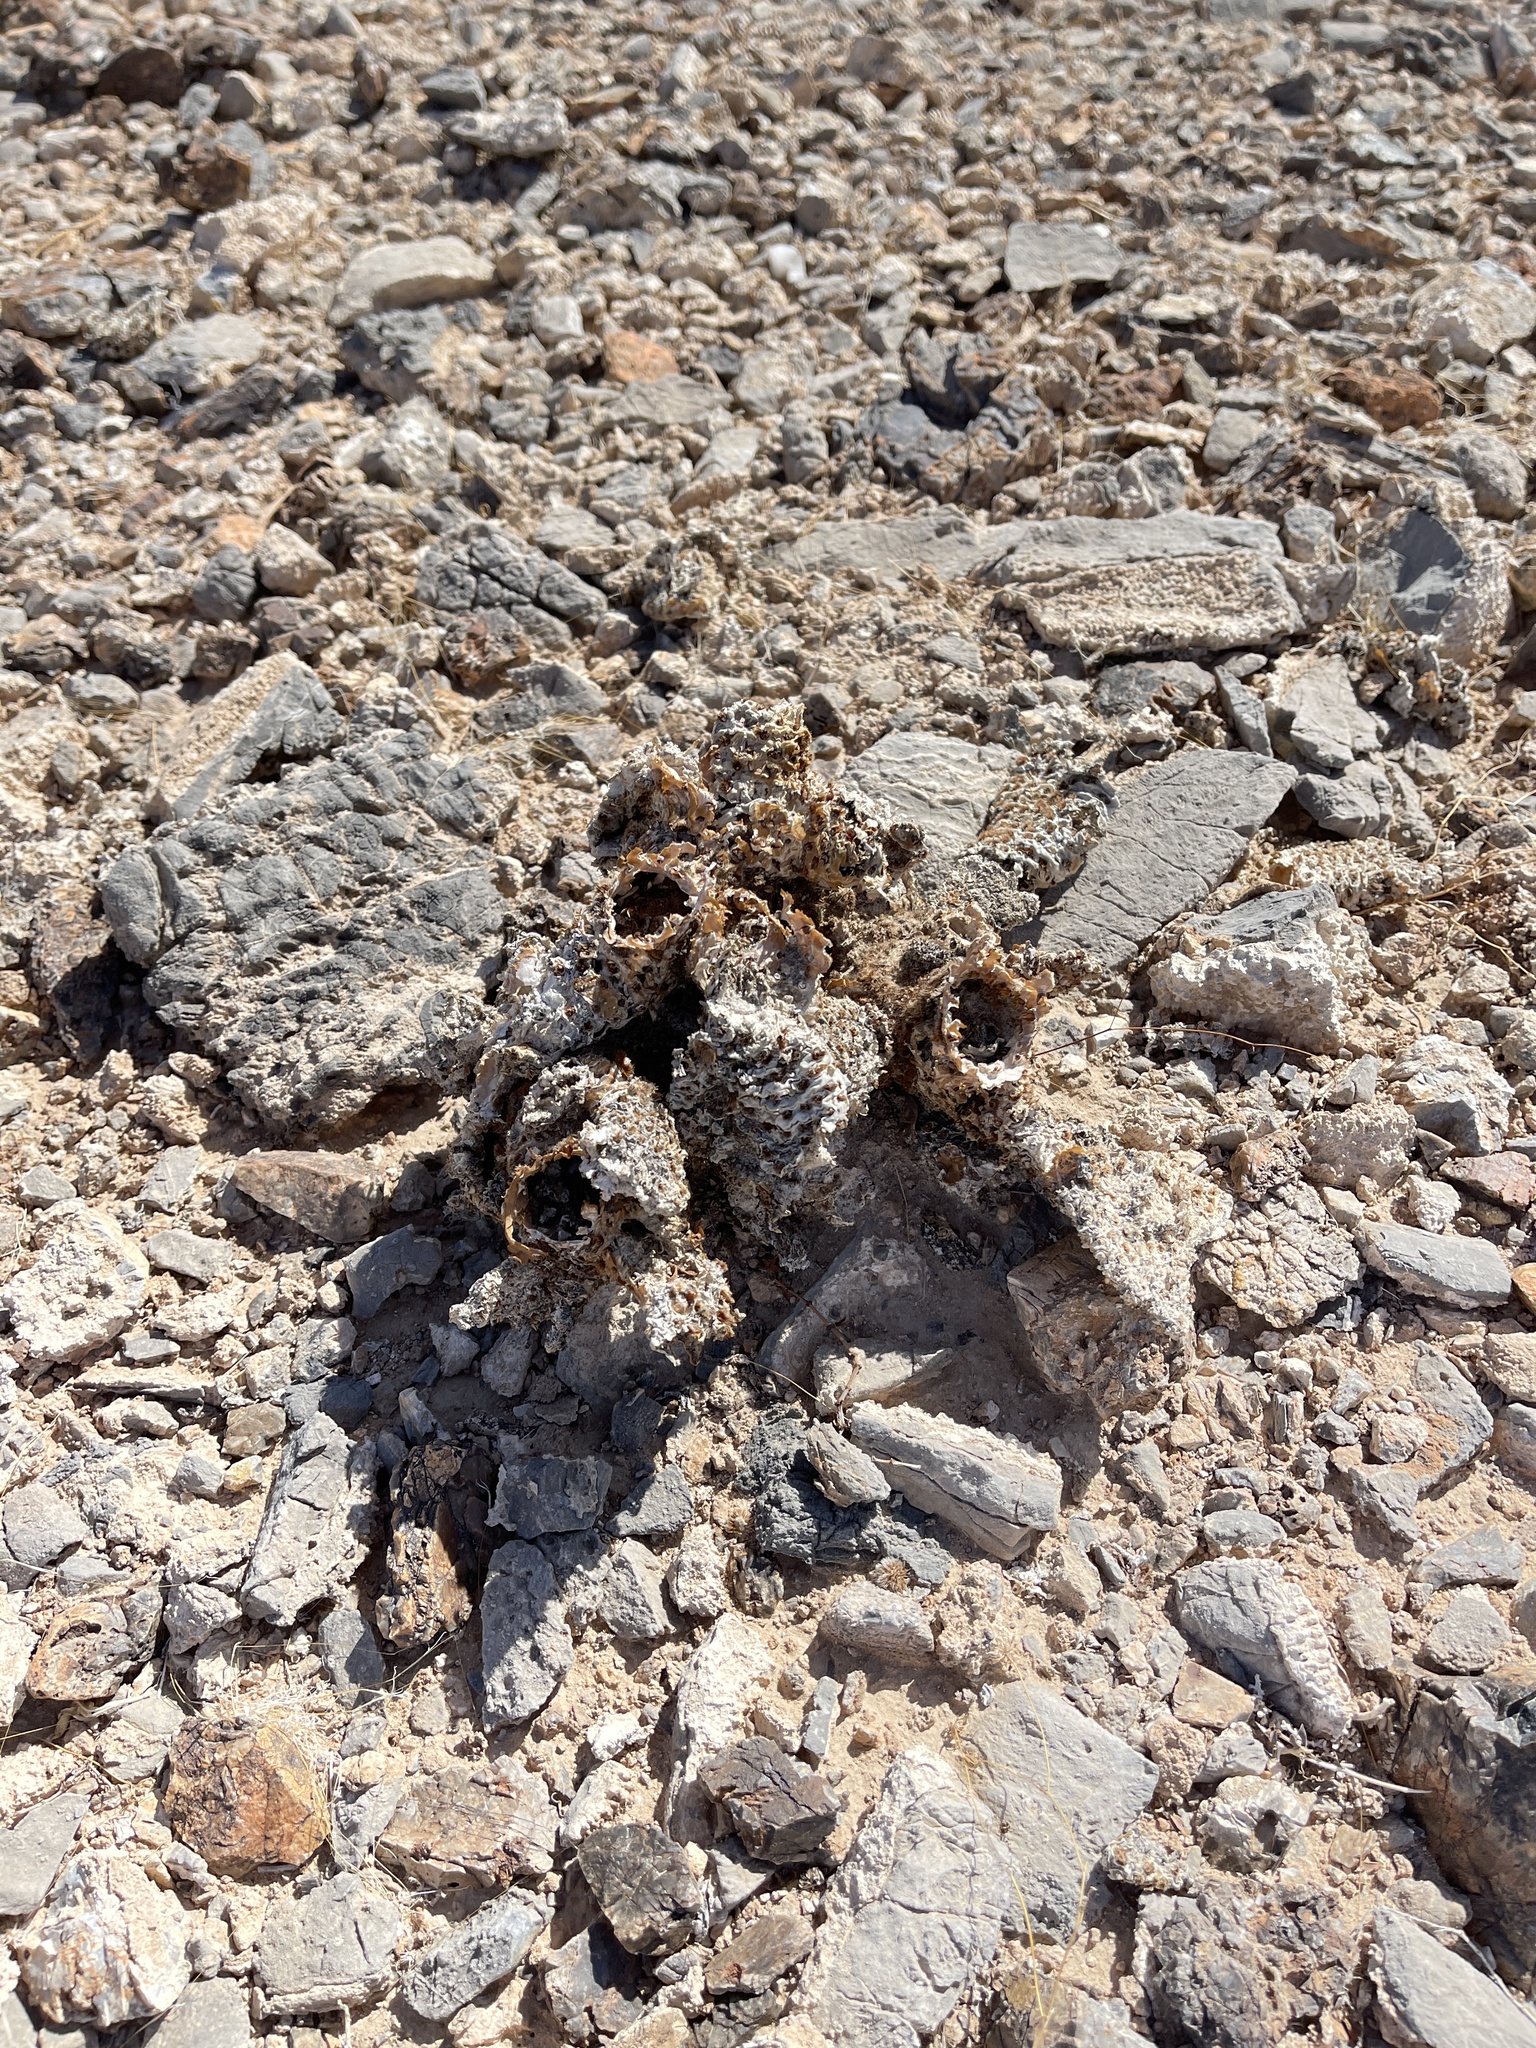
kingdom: Plantae
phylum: Tracheophyta
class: Magnoliopsida
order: Caryophyllales
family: Cactaceae
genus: Opuntia
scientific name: Opuntia basilaris
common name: Beavertail prickly-pear
